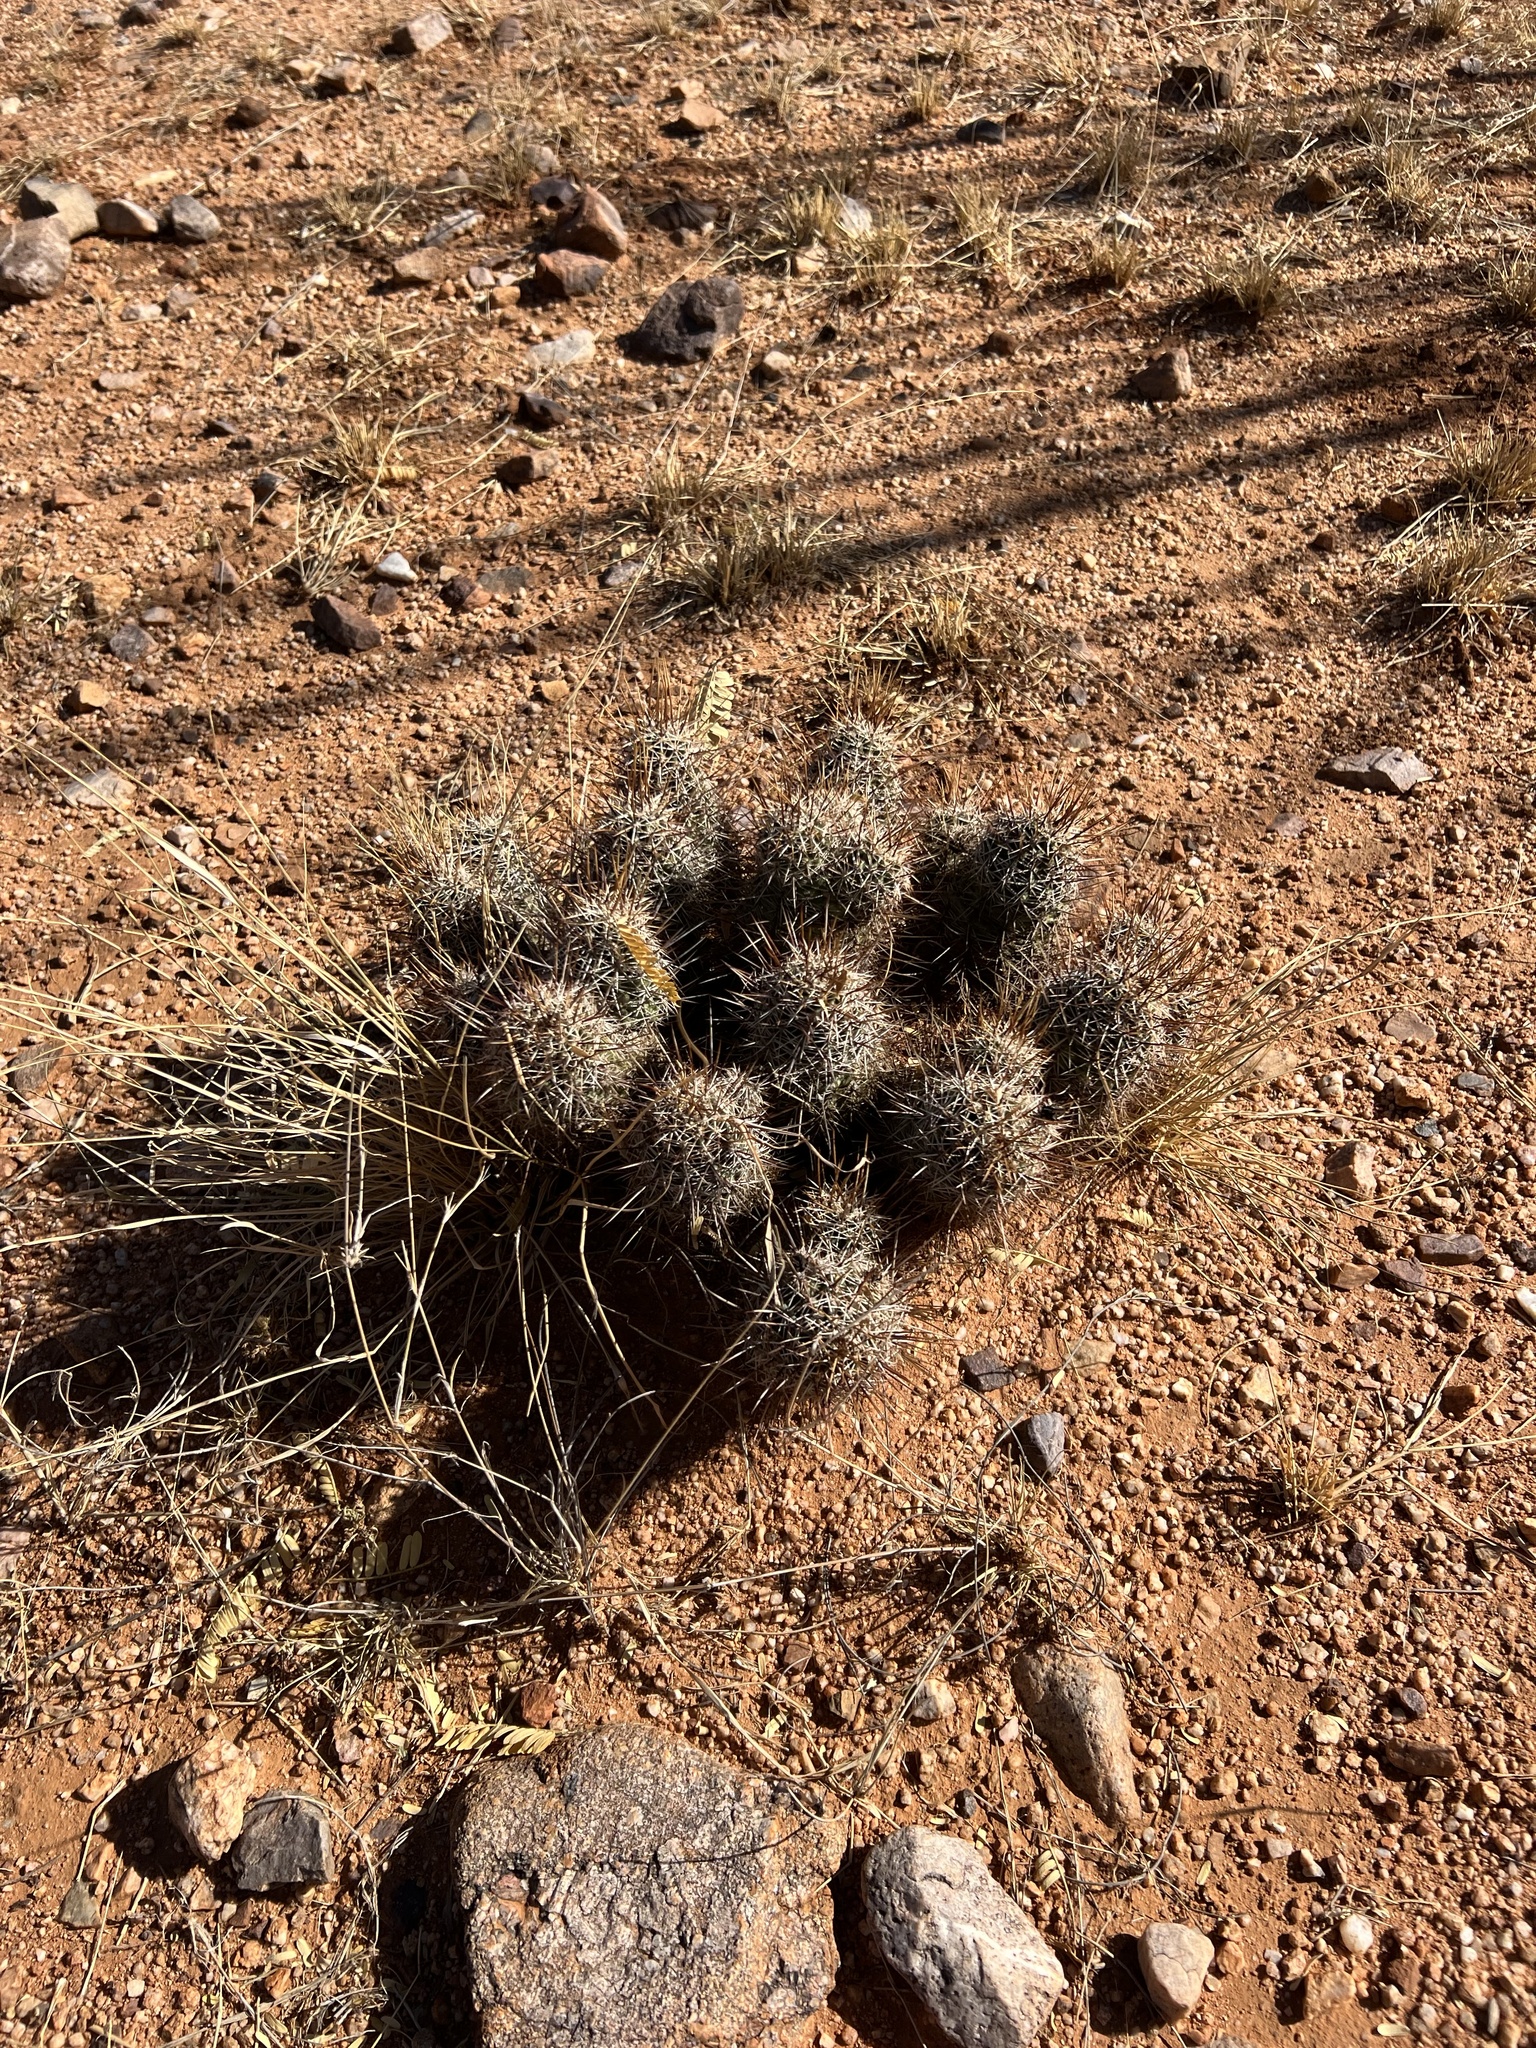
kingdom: Plantae
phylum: Tracheophyta
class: Magnoliopsida
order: Caryophyllales
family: Cactaceae
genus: Echinocereus
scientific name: Echinocereus fasciculatus
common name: Bundle hedgehog
